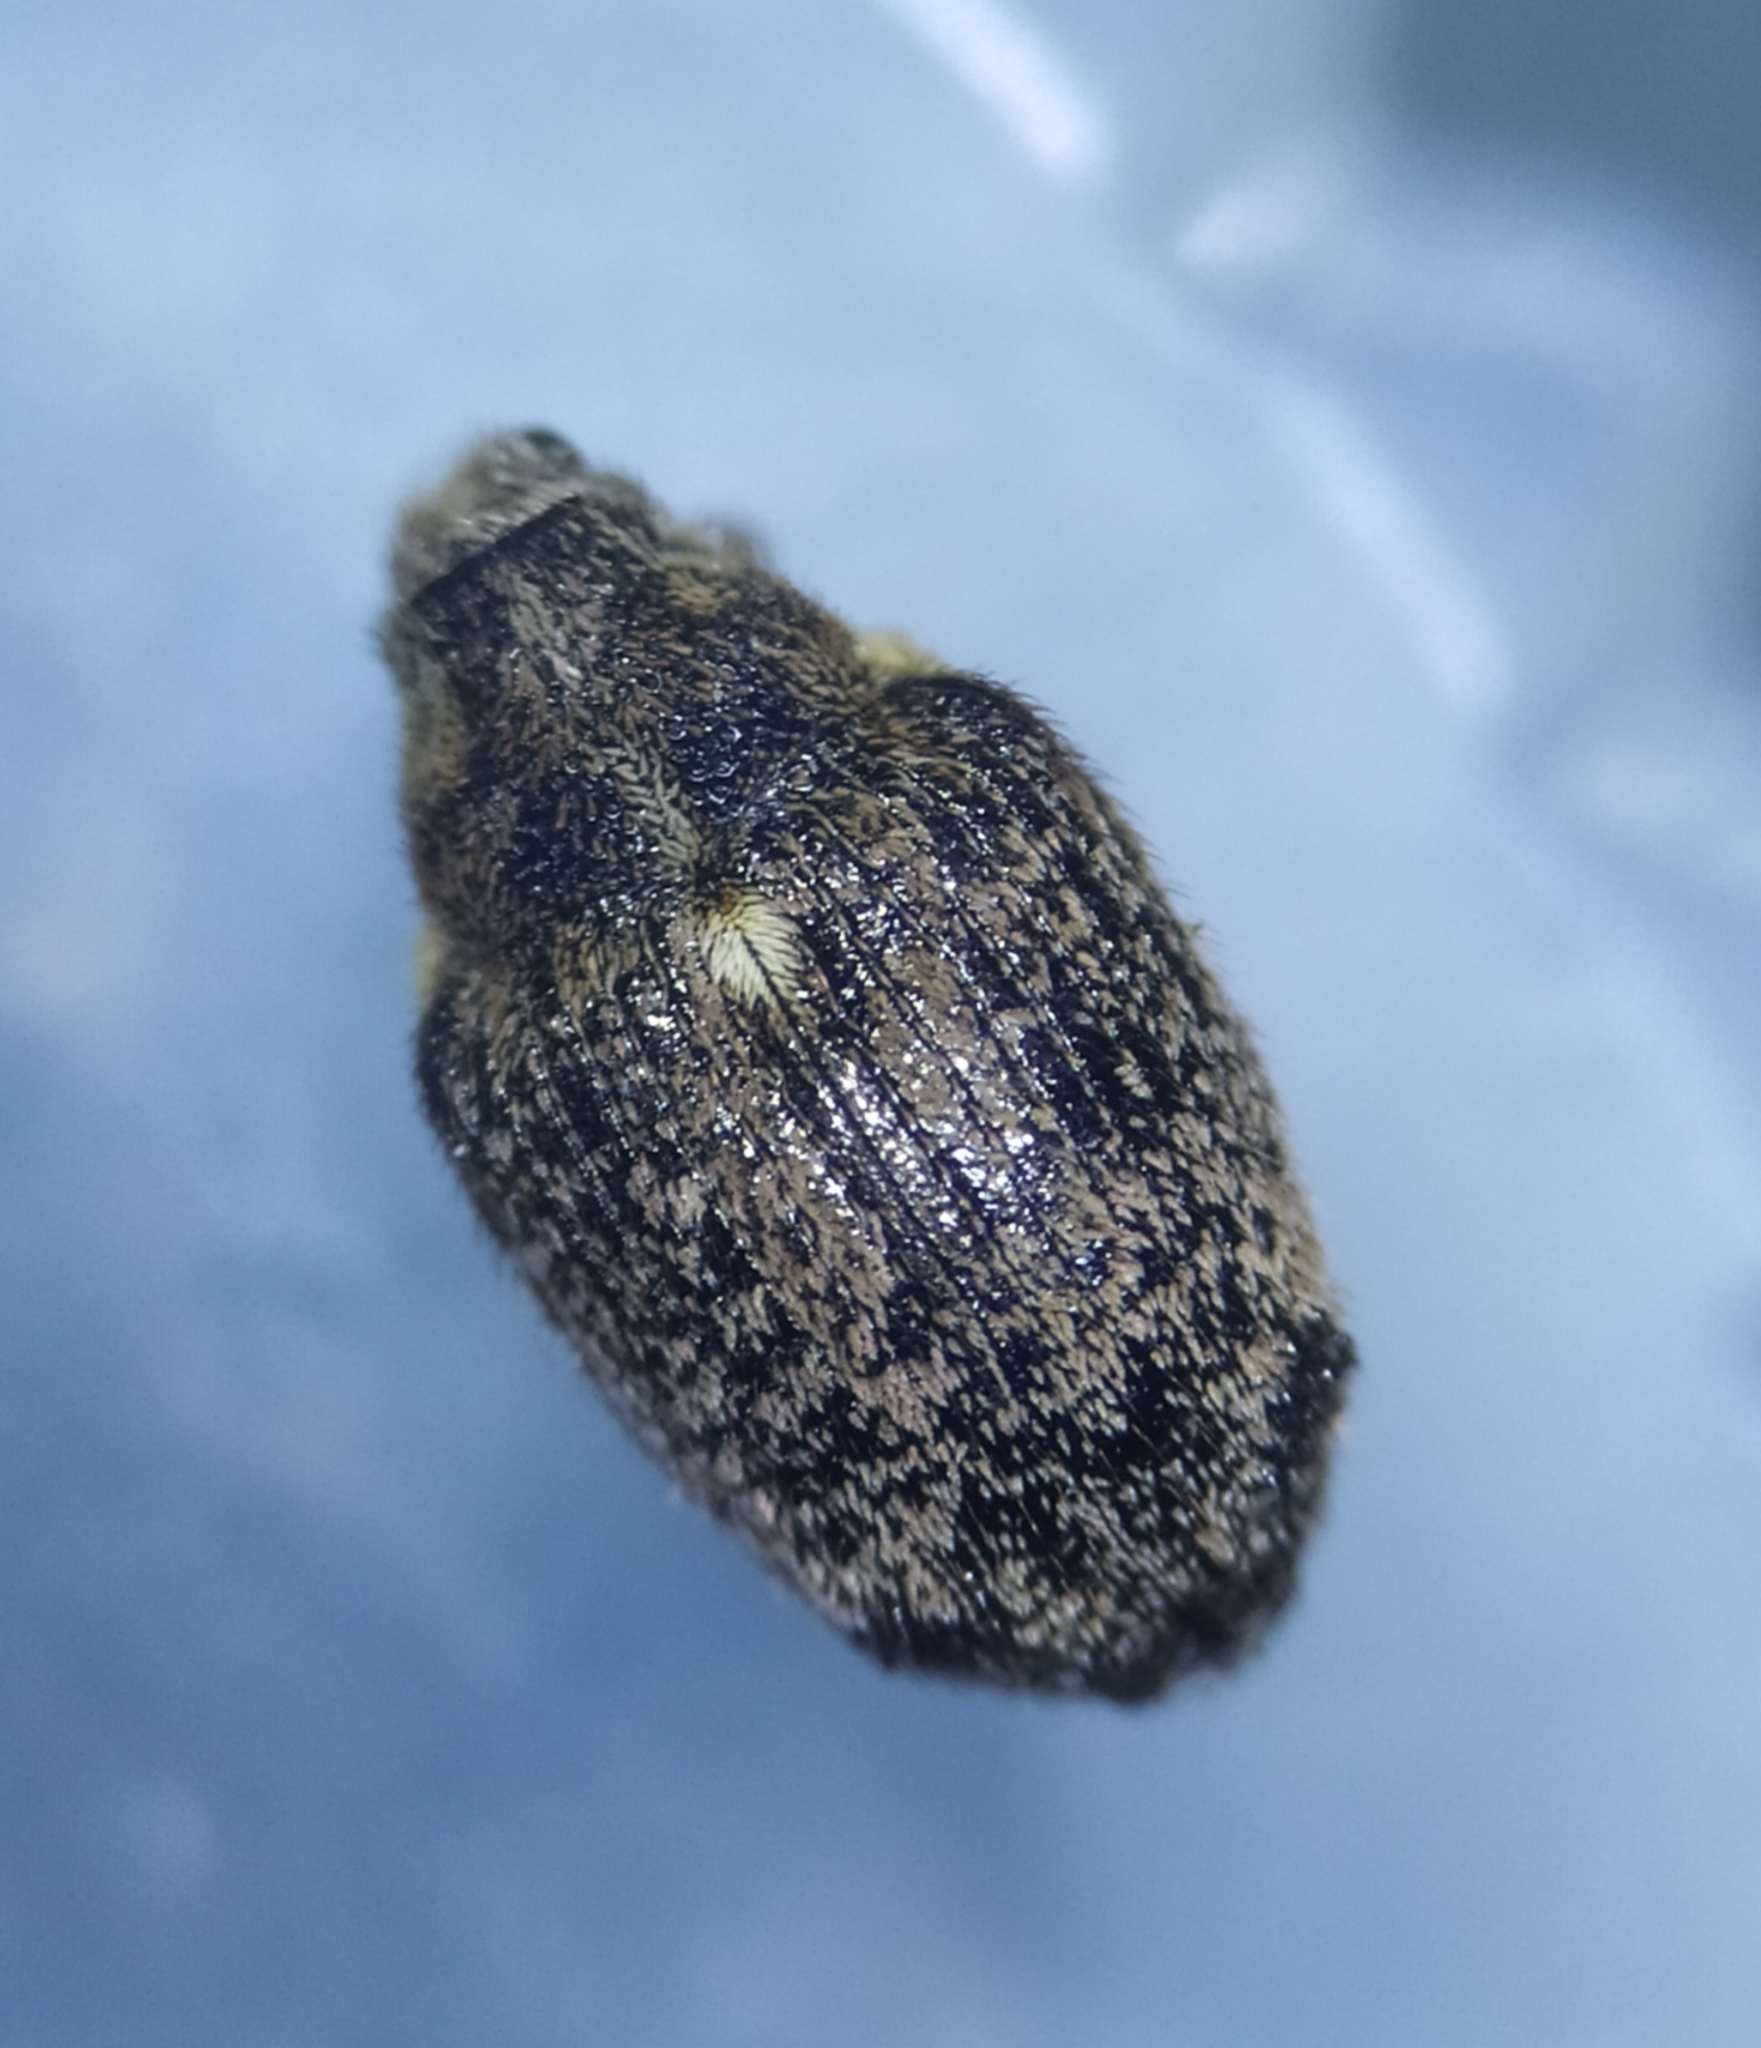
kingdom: Animalia
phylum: Arthropoda
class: Insecta
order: Coleoptera
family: Curculionidae
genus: Ceutorhynchus
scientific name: Ceutorhynchus pallidactylus
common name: Cabbage stem weavil
